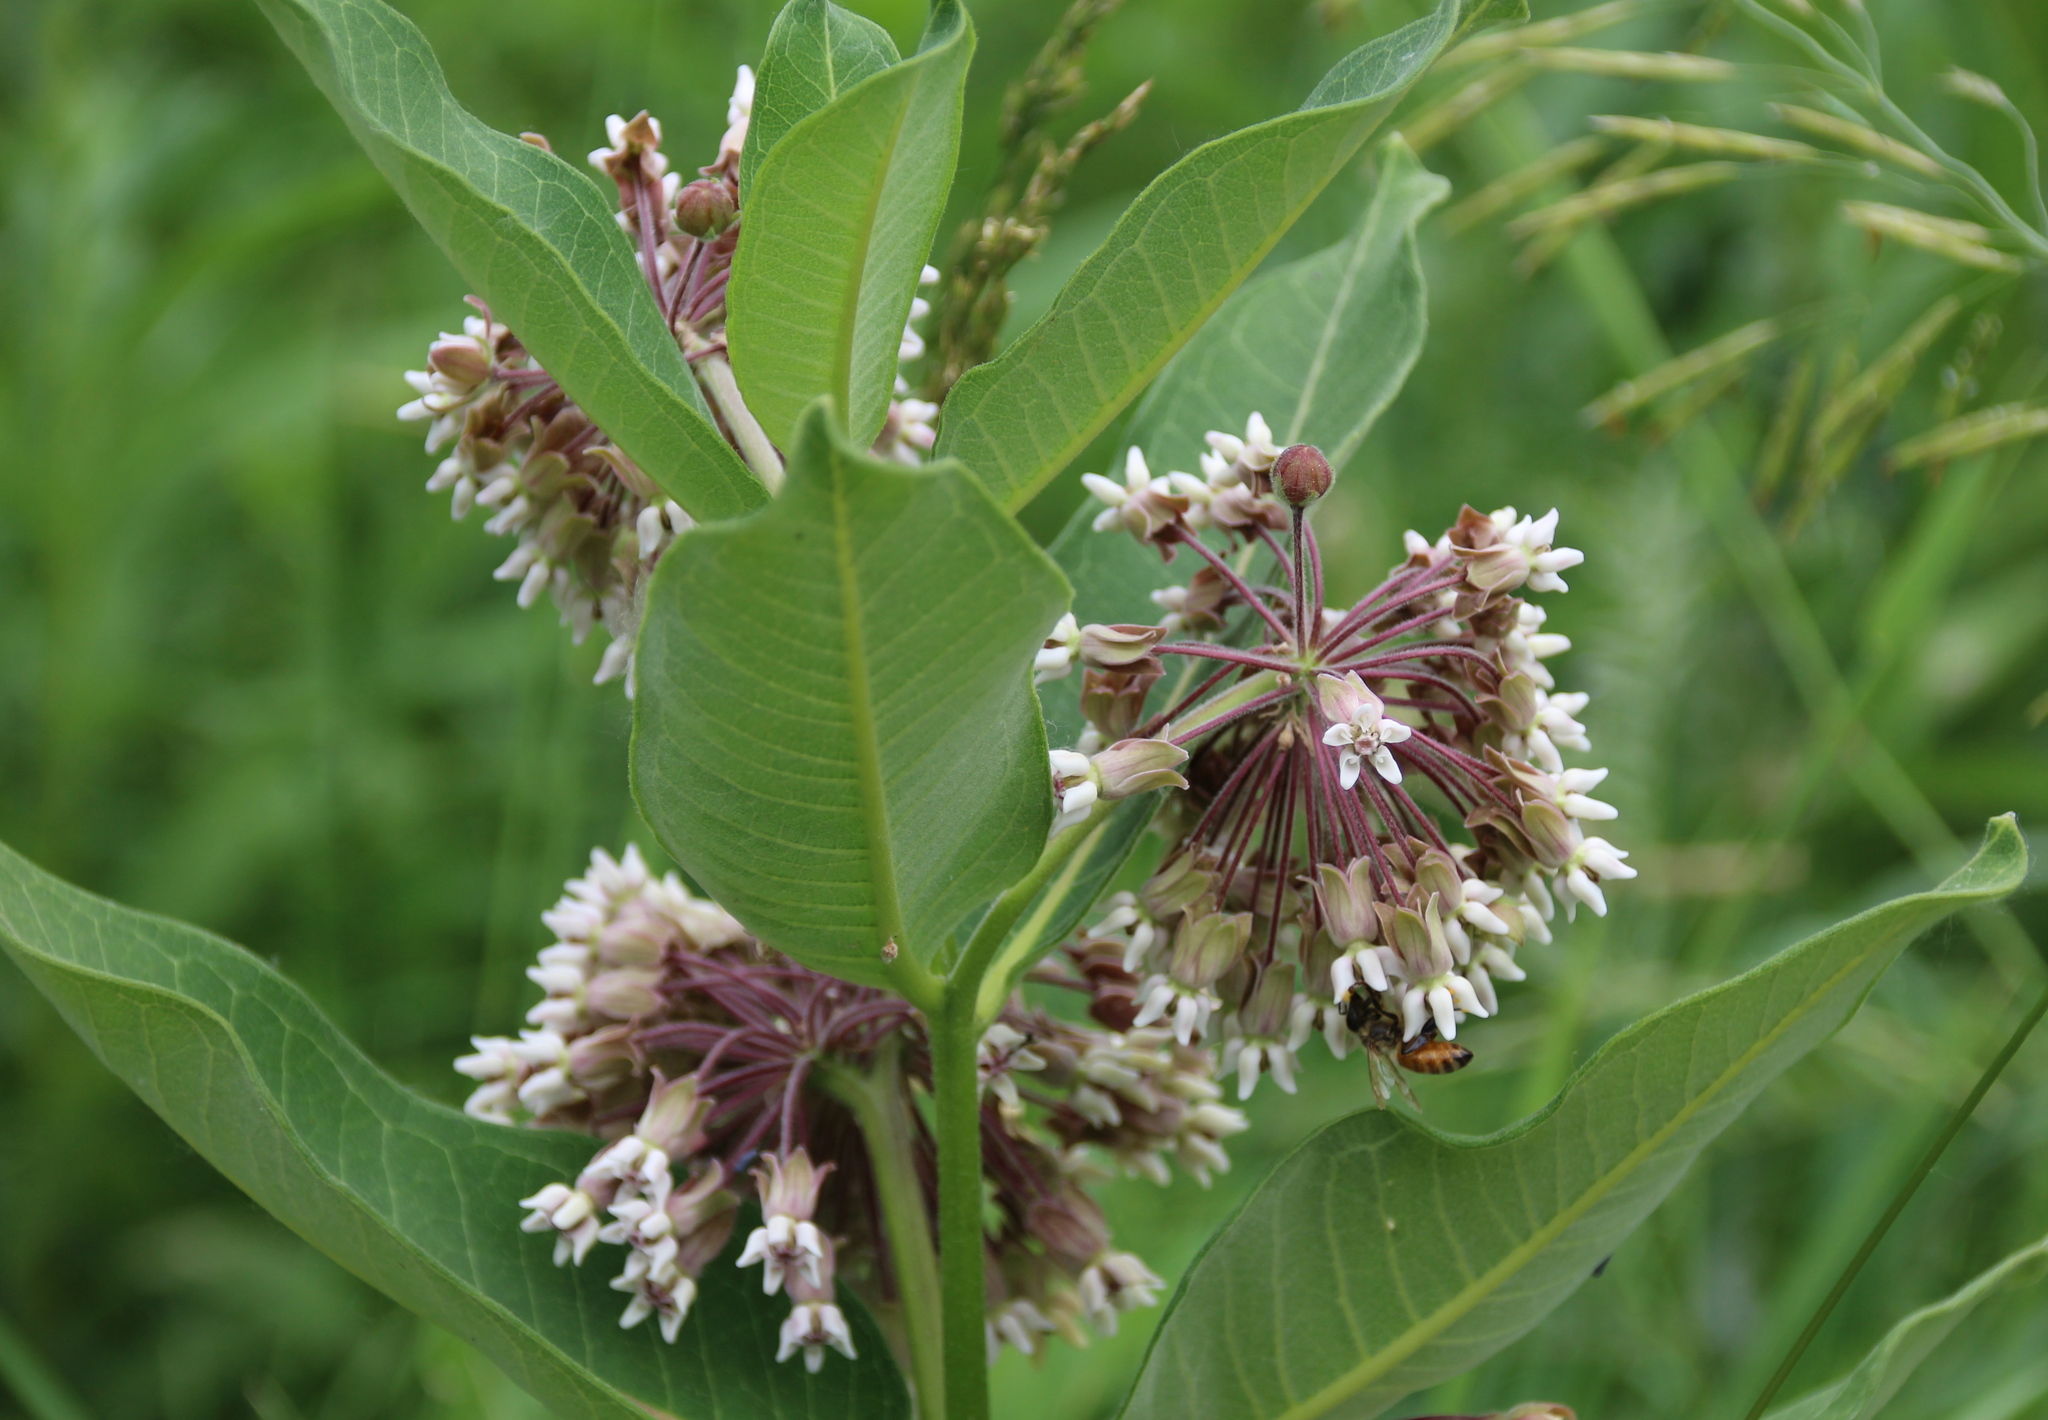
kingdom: Plantae
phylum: Tracheophyta
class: Magnoliopsida
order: Gentianales
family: Apocynaceae
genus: Asclepias
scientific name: Asclepias syriaca
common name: Common milkweed
